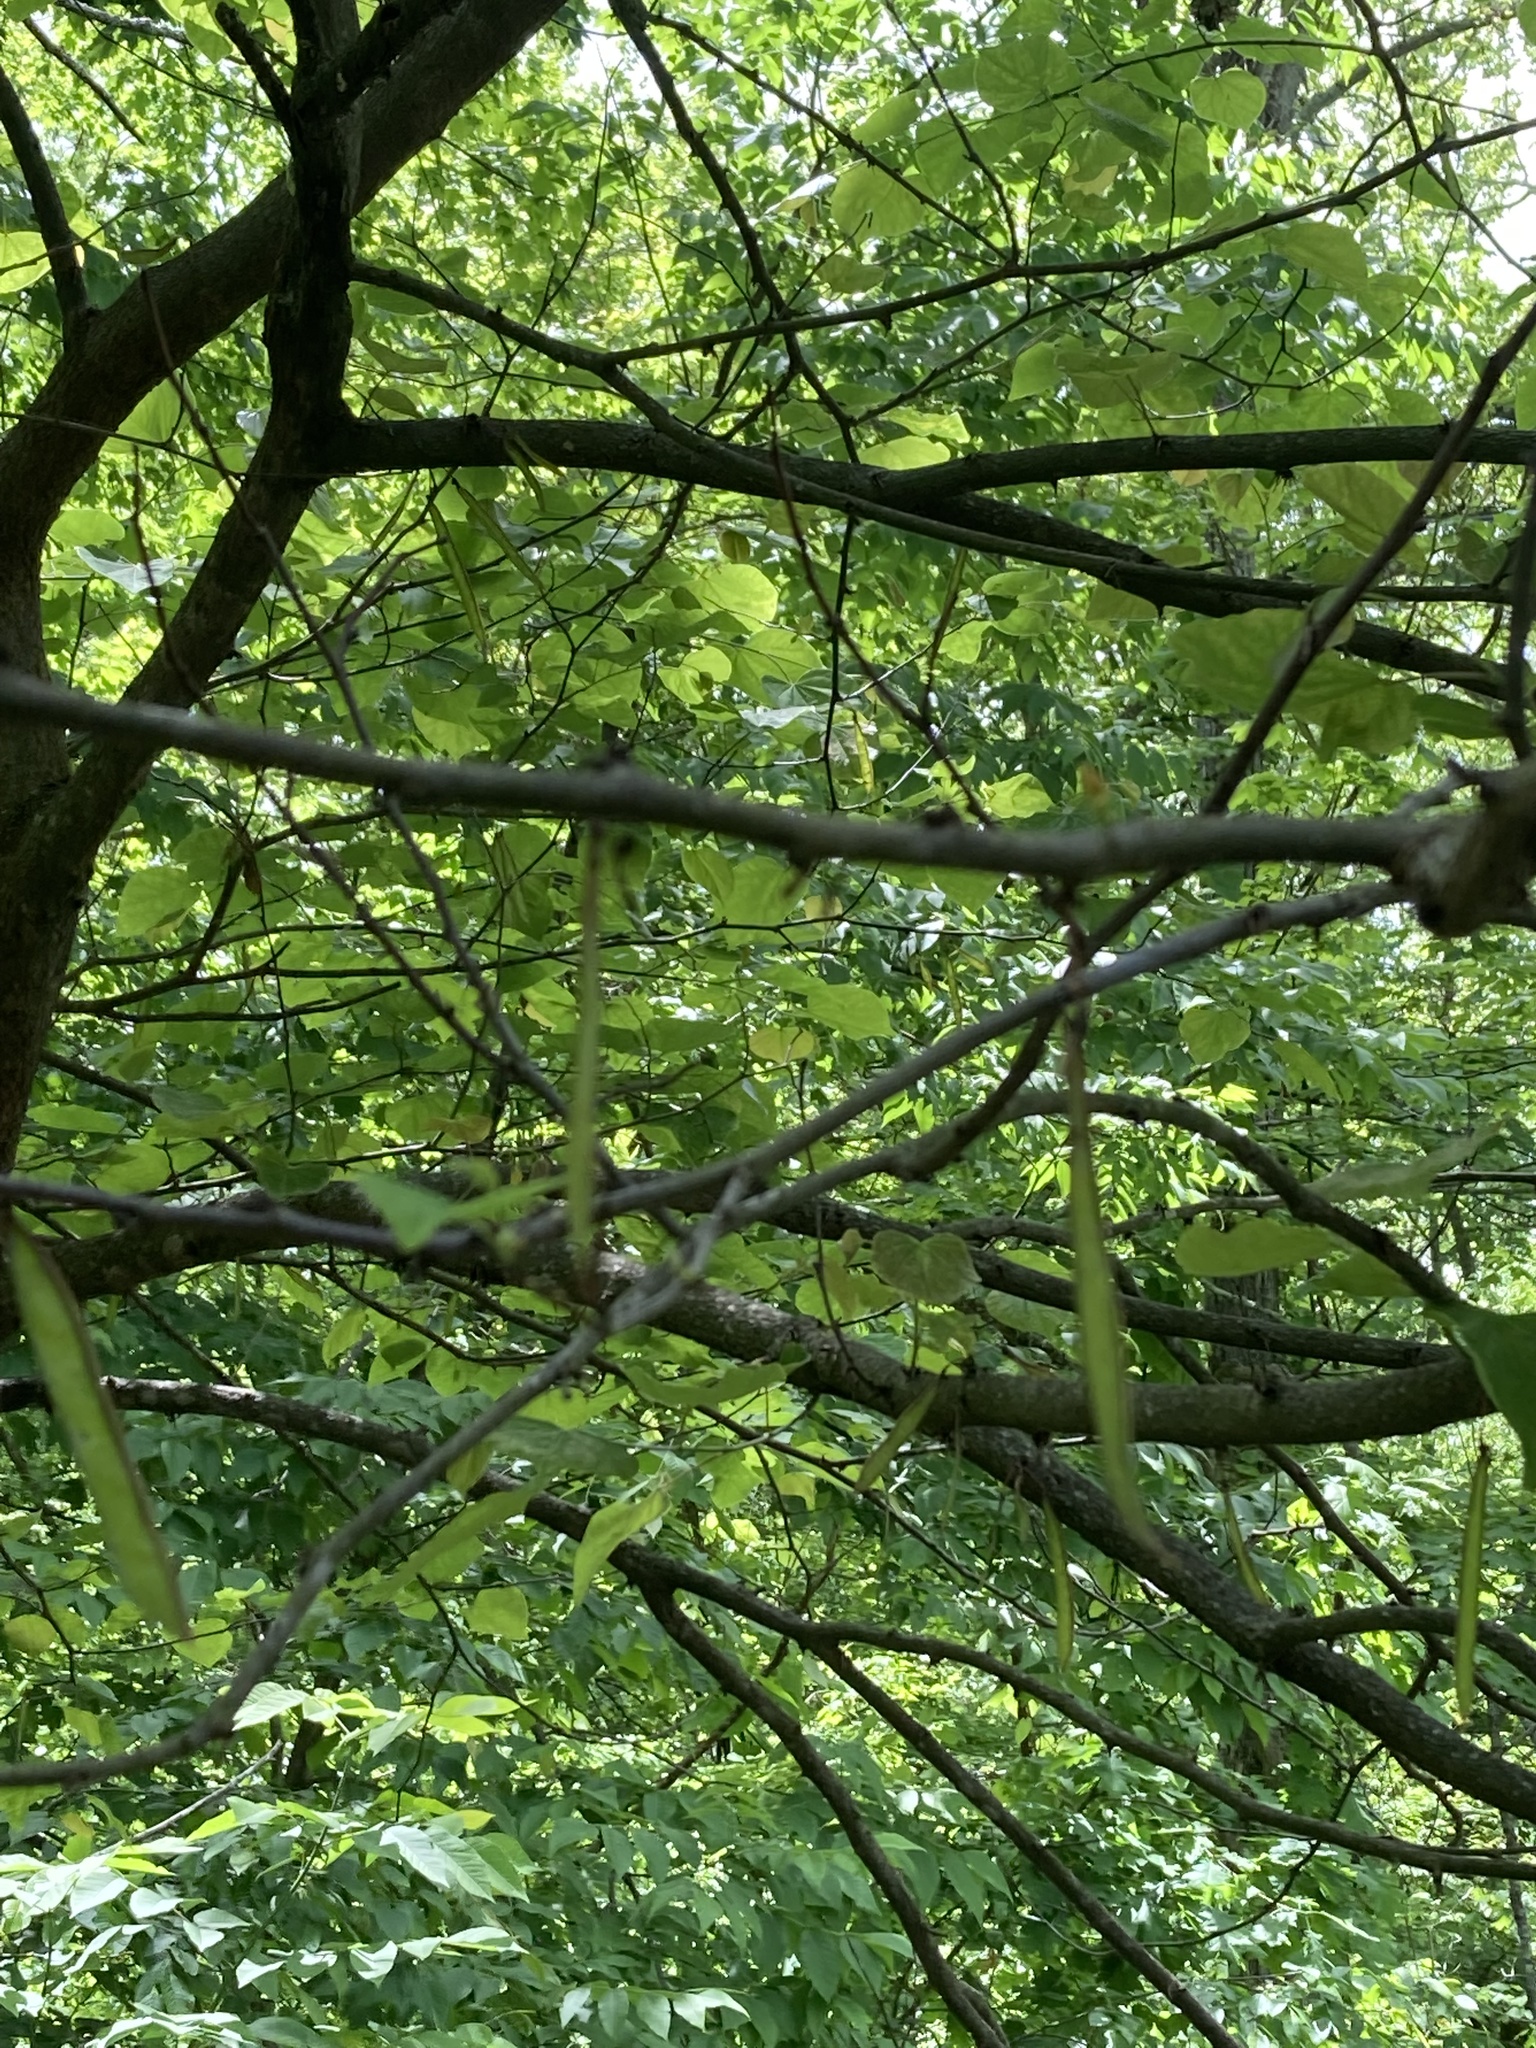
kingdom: Plantae
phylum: Tracheophyta
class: Magnoliopsida
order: Fabales
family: Fabaceae
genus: Cercis
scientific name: Cercis canadensis
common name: Eastern redbud
